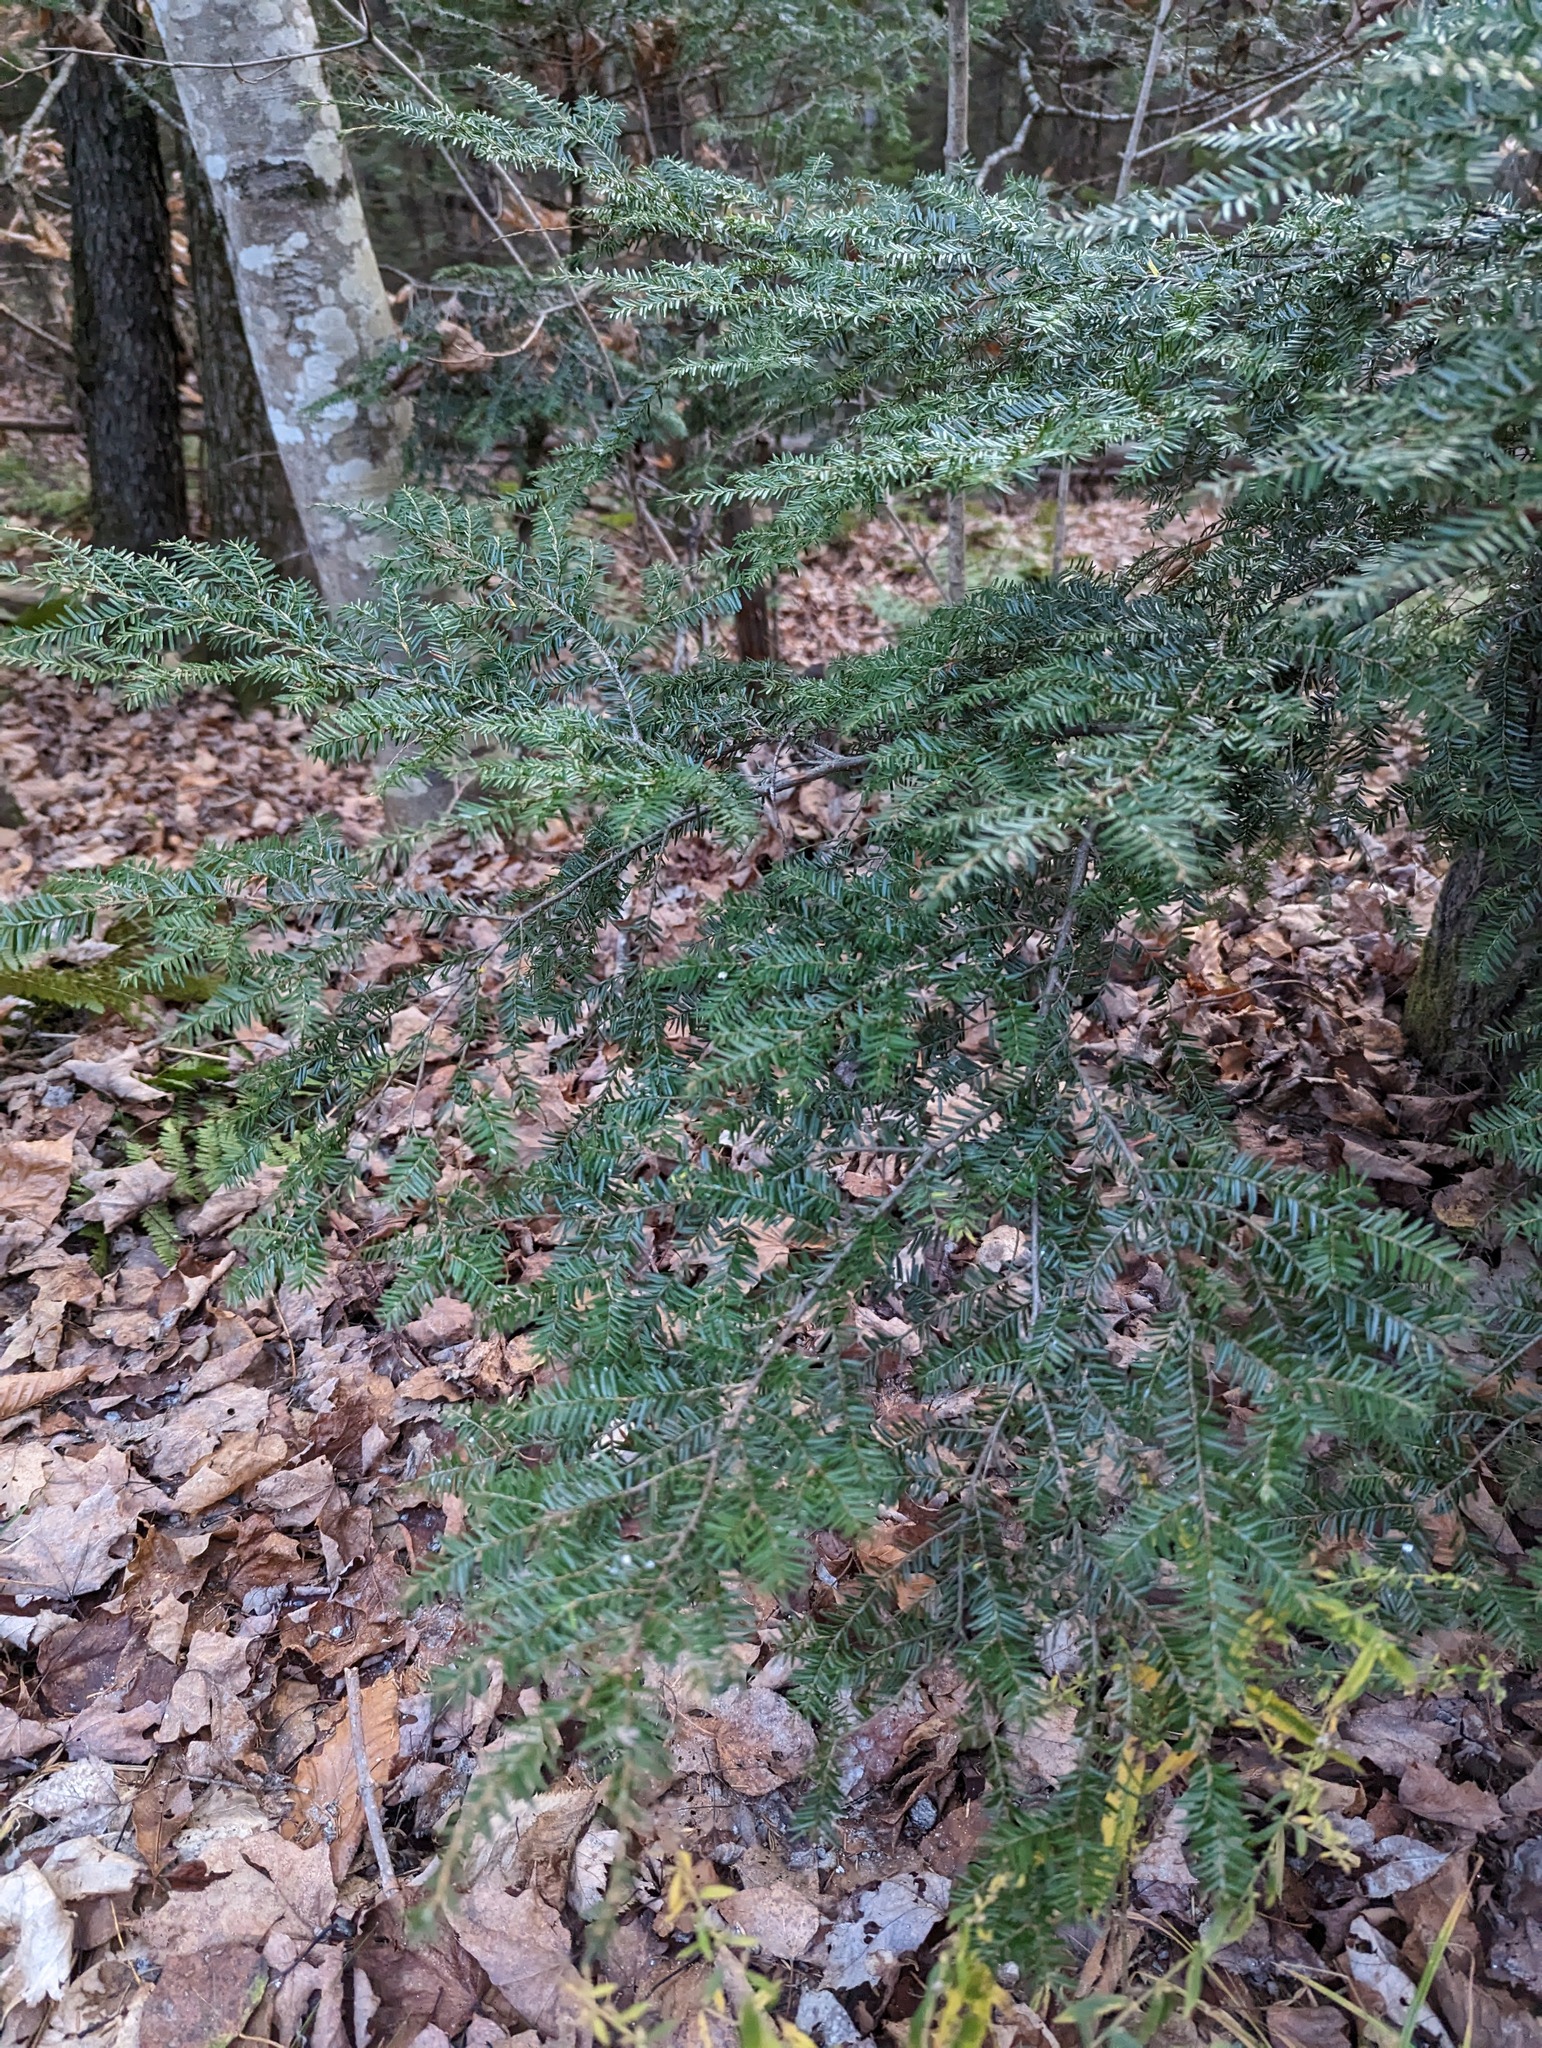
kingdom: Plantae
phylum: Tracheophyta
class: Pinopsida
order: Pinales
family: Pinaceae
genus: Tsuga
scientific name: Tsuga canadensis
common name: Eastern hemlock
